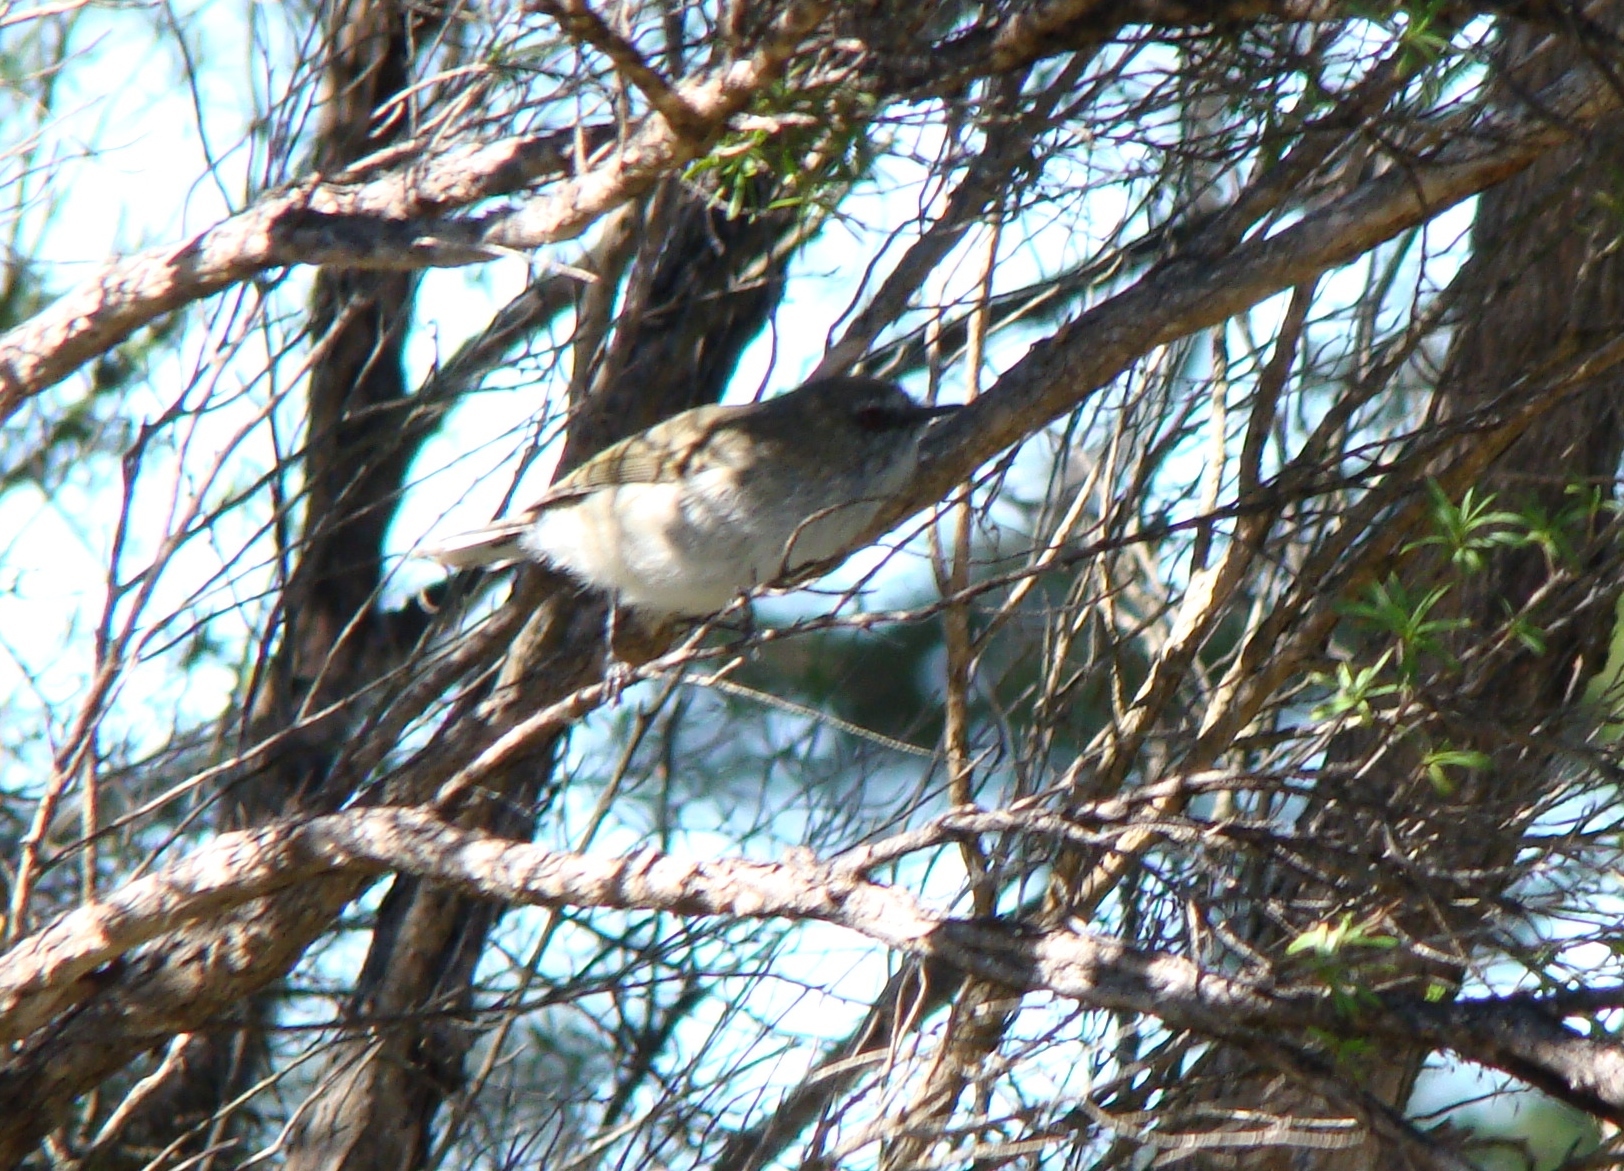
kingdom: Animalia
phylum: Chordata
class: Aves
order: Passeriformes
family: Acanthizidae
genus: Gerygone
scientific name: Gerygone igata
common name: Grey gerygone
